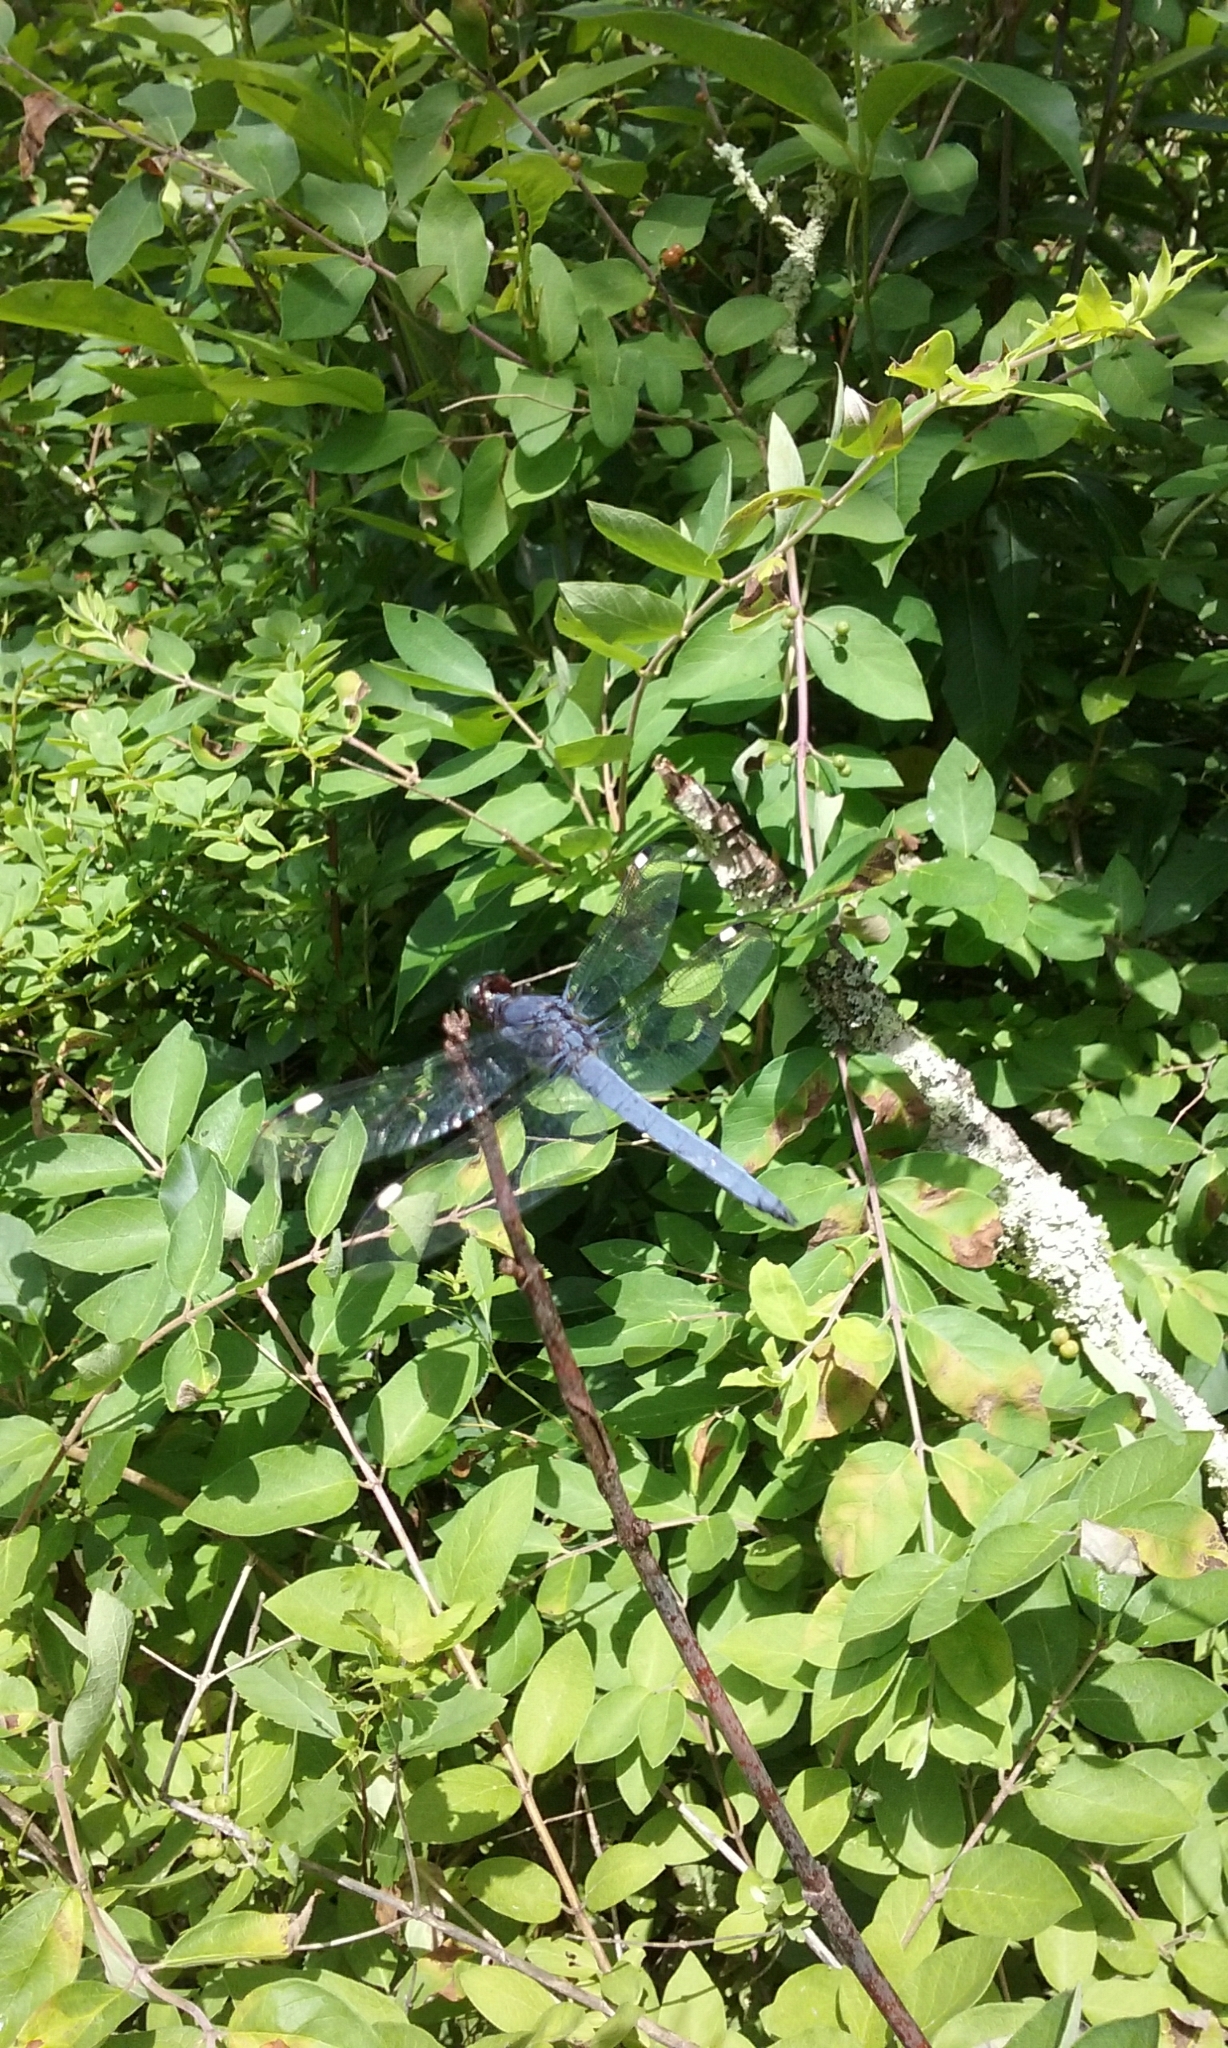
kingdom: Animalia
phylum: Arthropoda
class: Insecta
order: Odonata
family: Libellulidae
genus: Libellula
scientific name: Libellula cyanea
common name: Spangled skimmer
